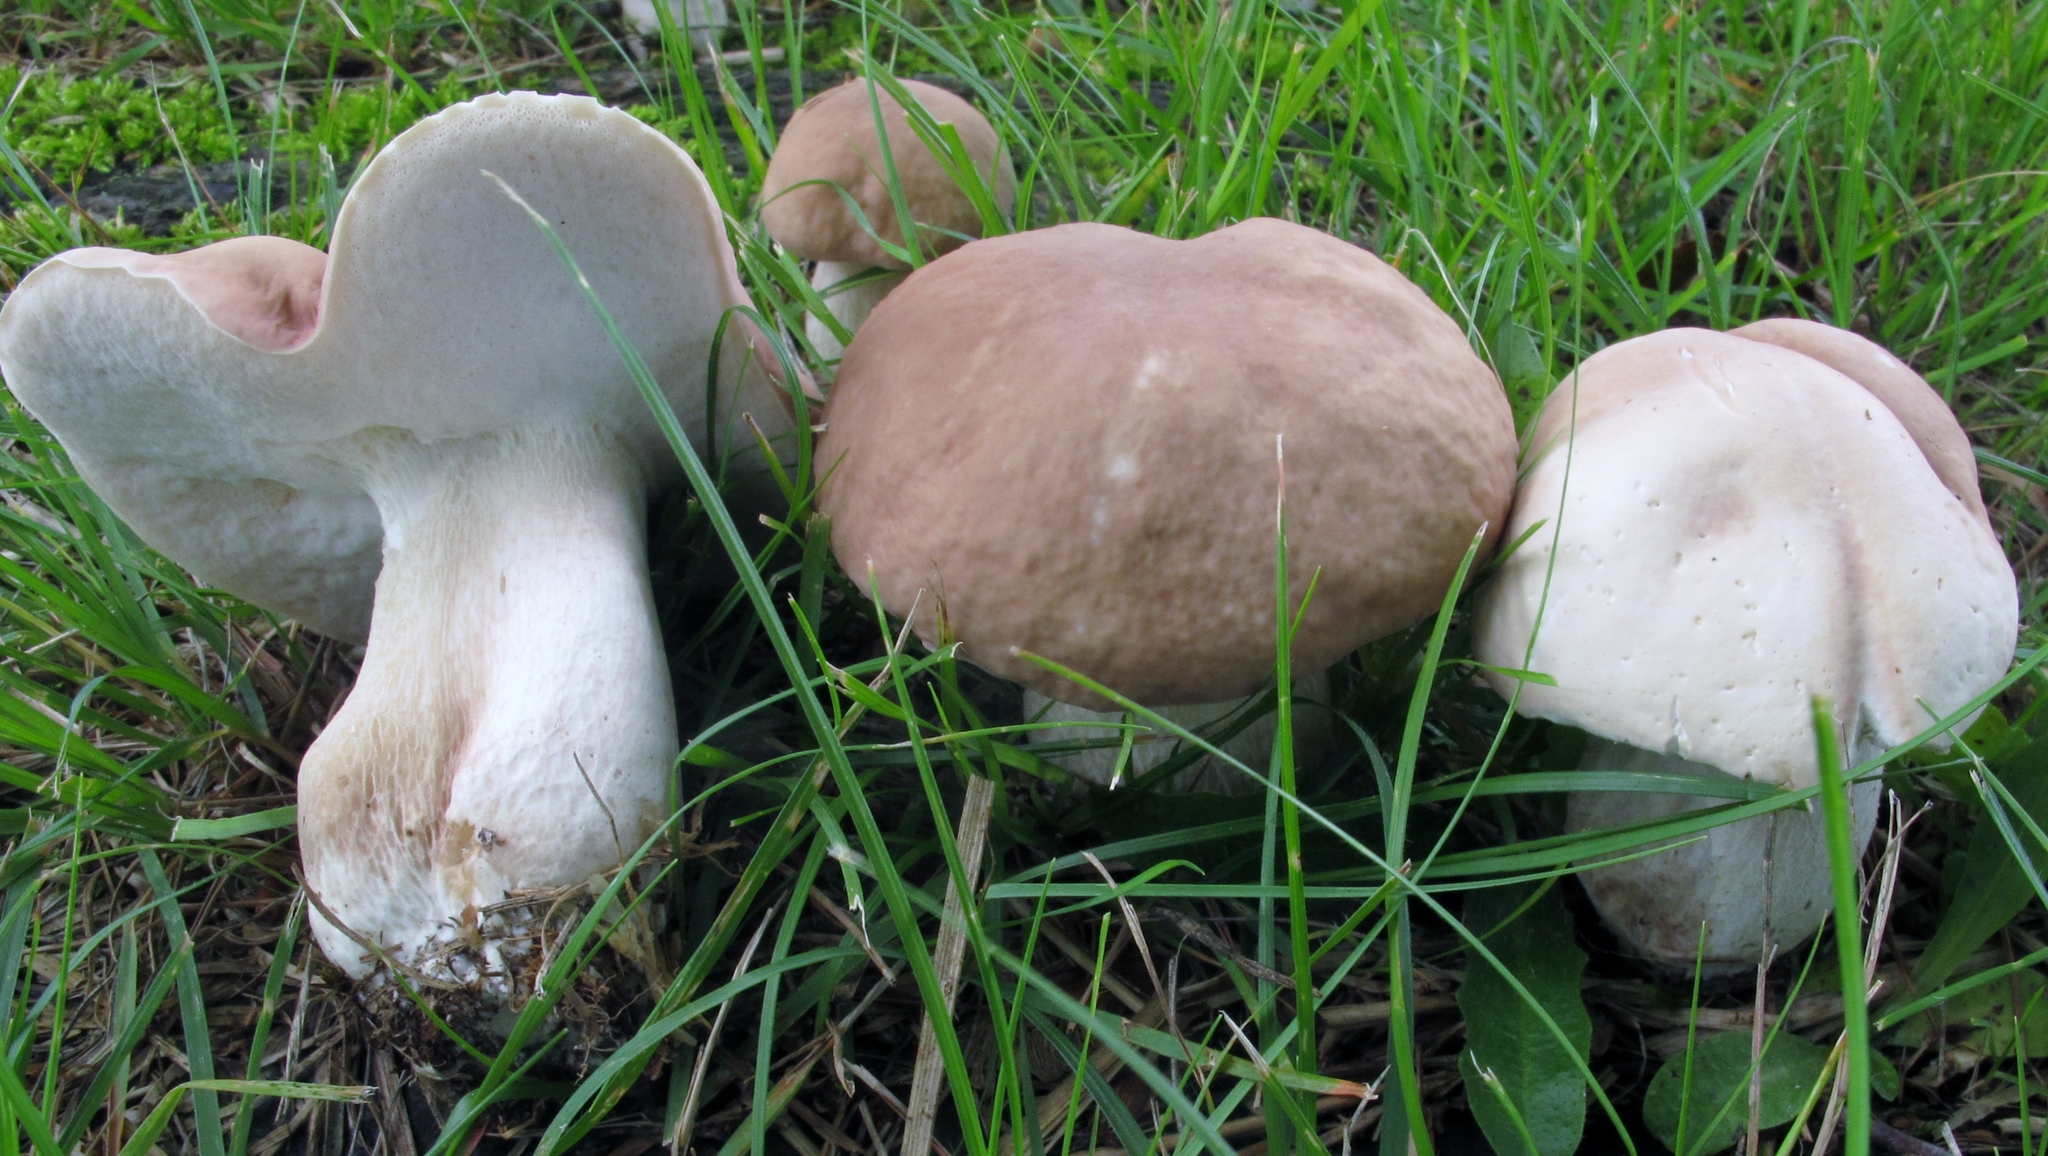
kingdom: Fungi
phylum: Basidiomycota
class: Agaricomycetes
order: Boletales
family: Boletaceae
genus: Xanthoconium
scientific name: Xanthoconium separans
